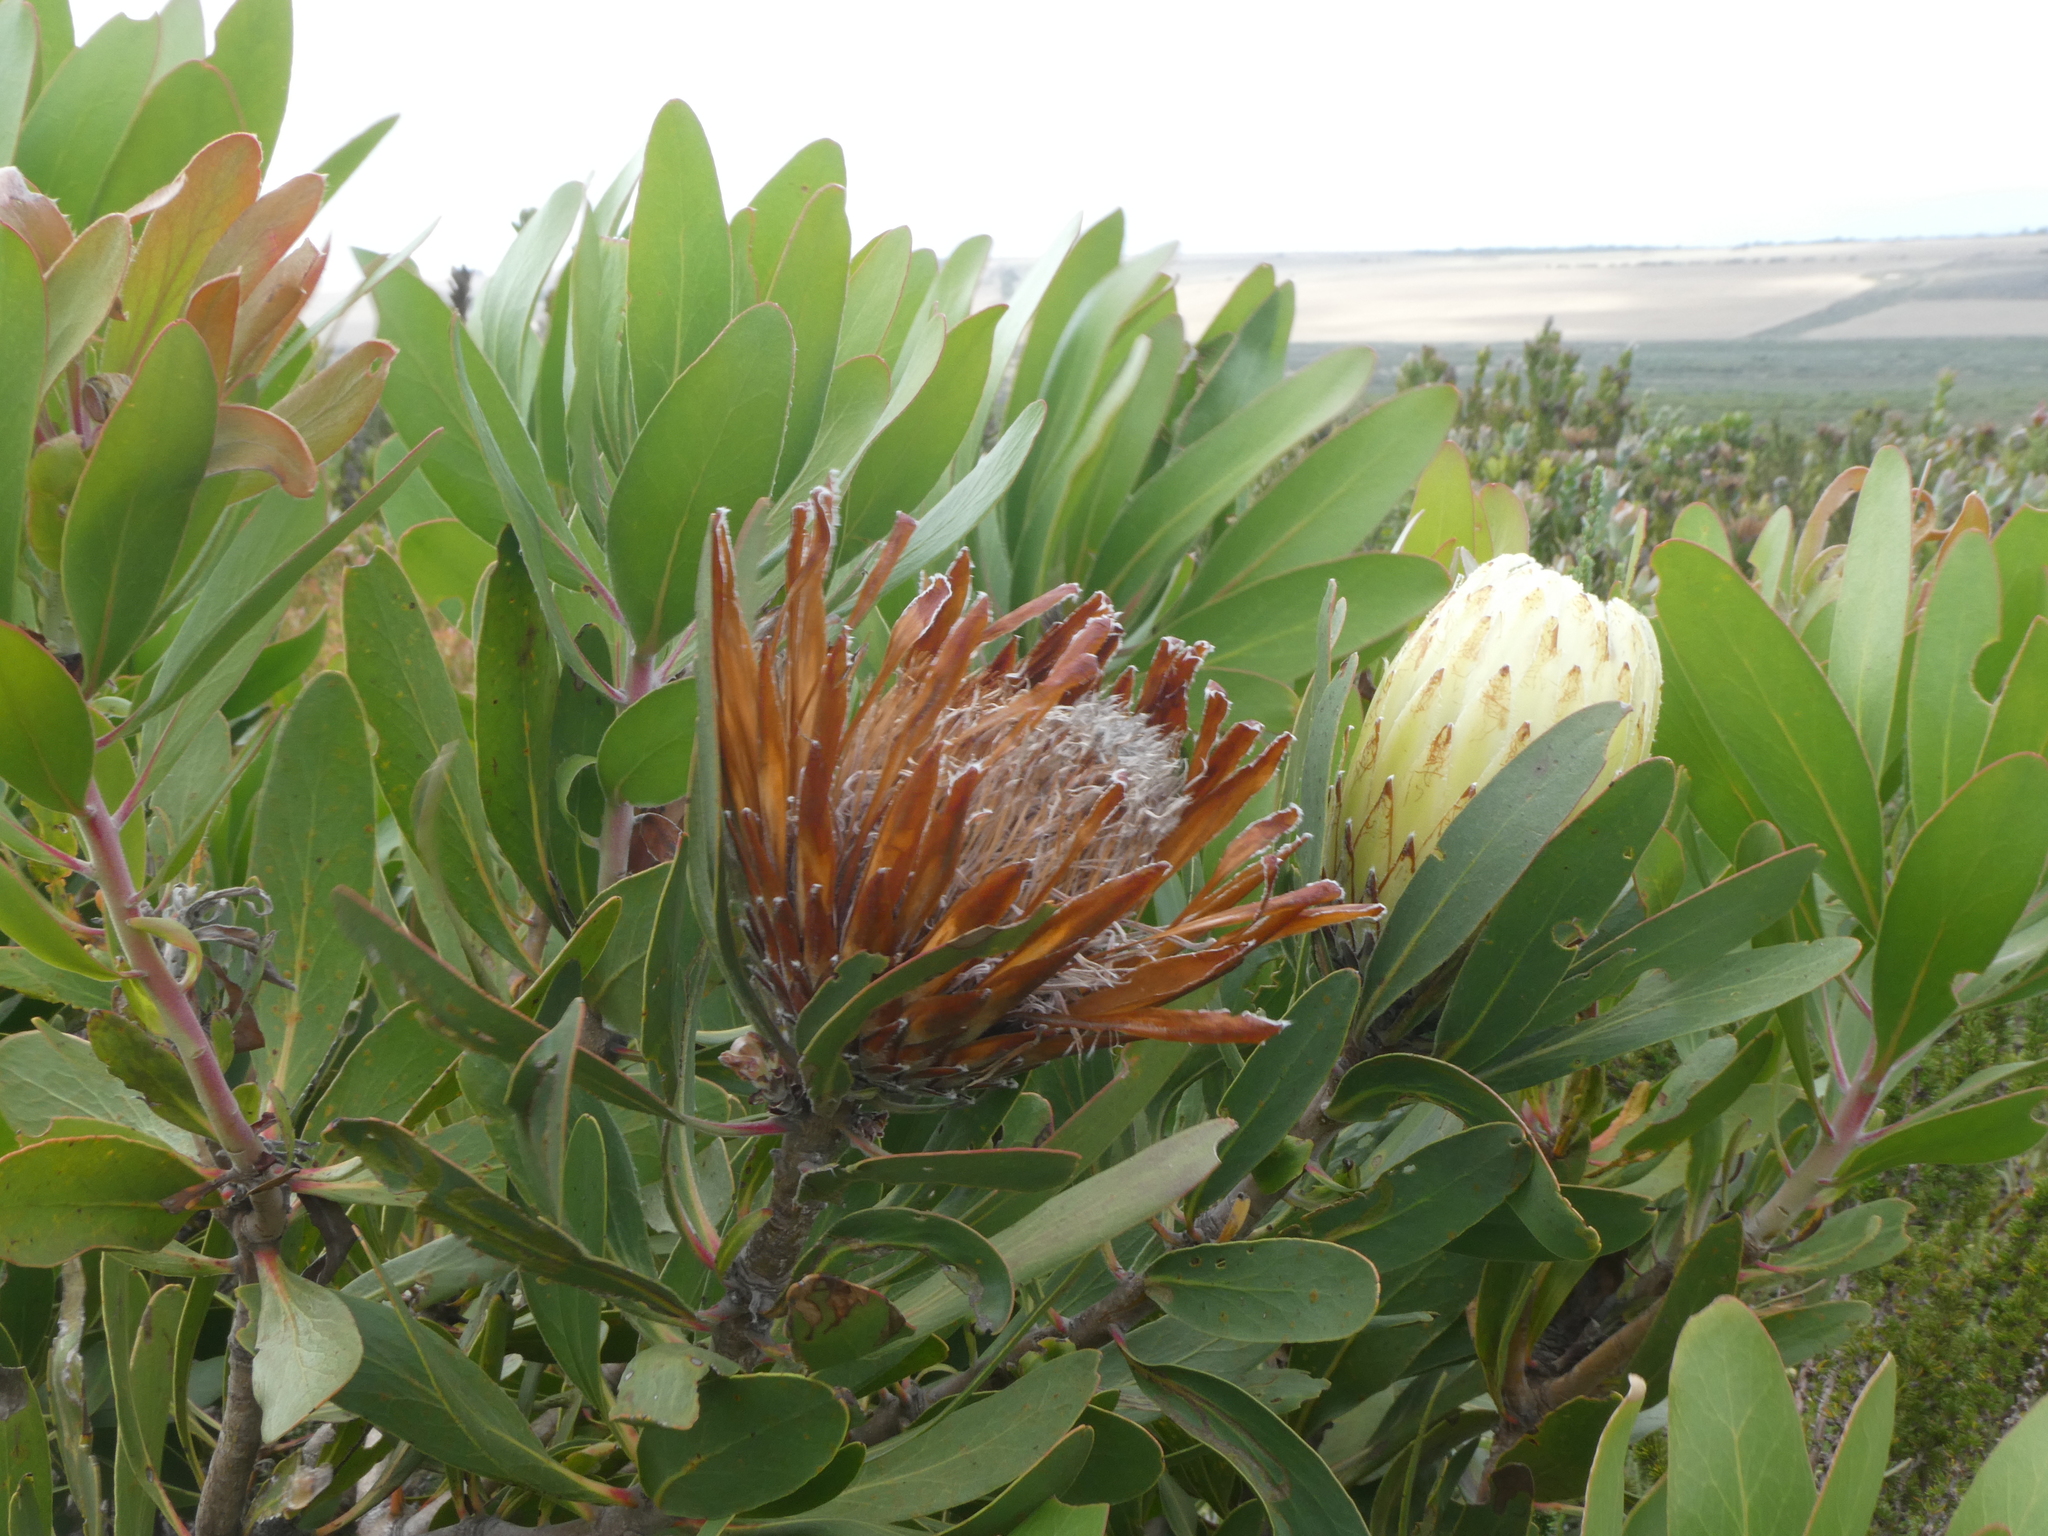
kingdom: Plantae
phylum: Tracheophyta
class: Magnoliopsida
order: Proteales
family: Proteaceae
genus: Protea
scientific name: Protea obtusifolia
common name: Bredasdorp sugarbush
